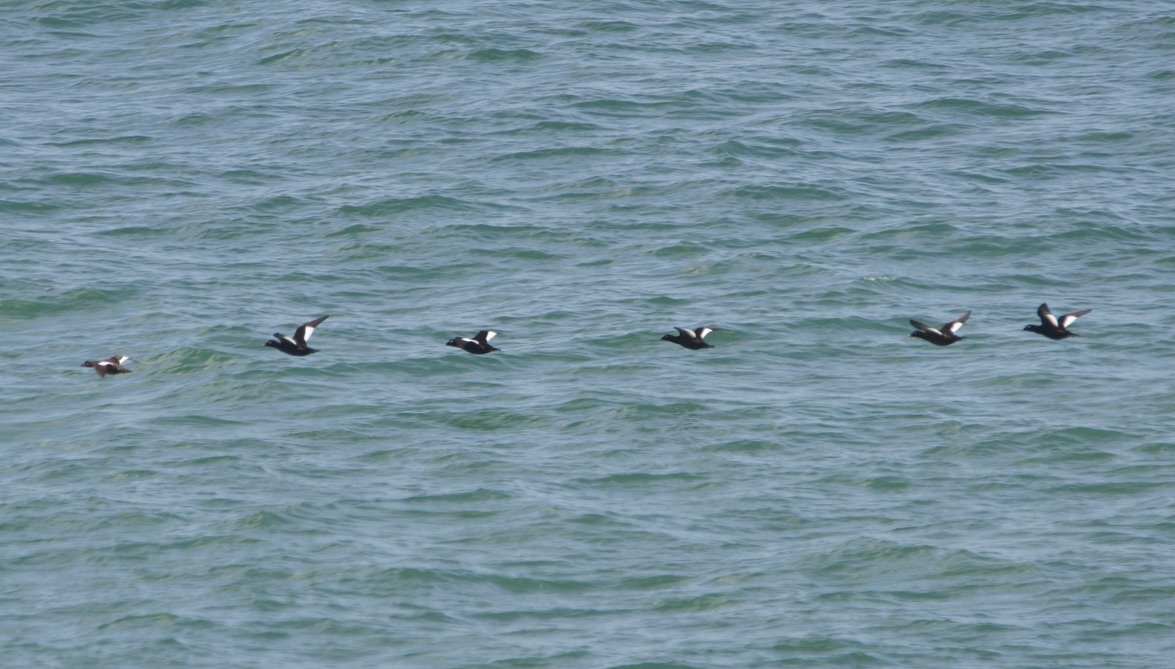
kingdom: Animalia
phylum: Chordata
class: Aves
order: Anseriformes
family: Anatidae
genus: Melanitta
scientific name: Melanitta deglandi
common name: White-winged scoter
